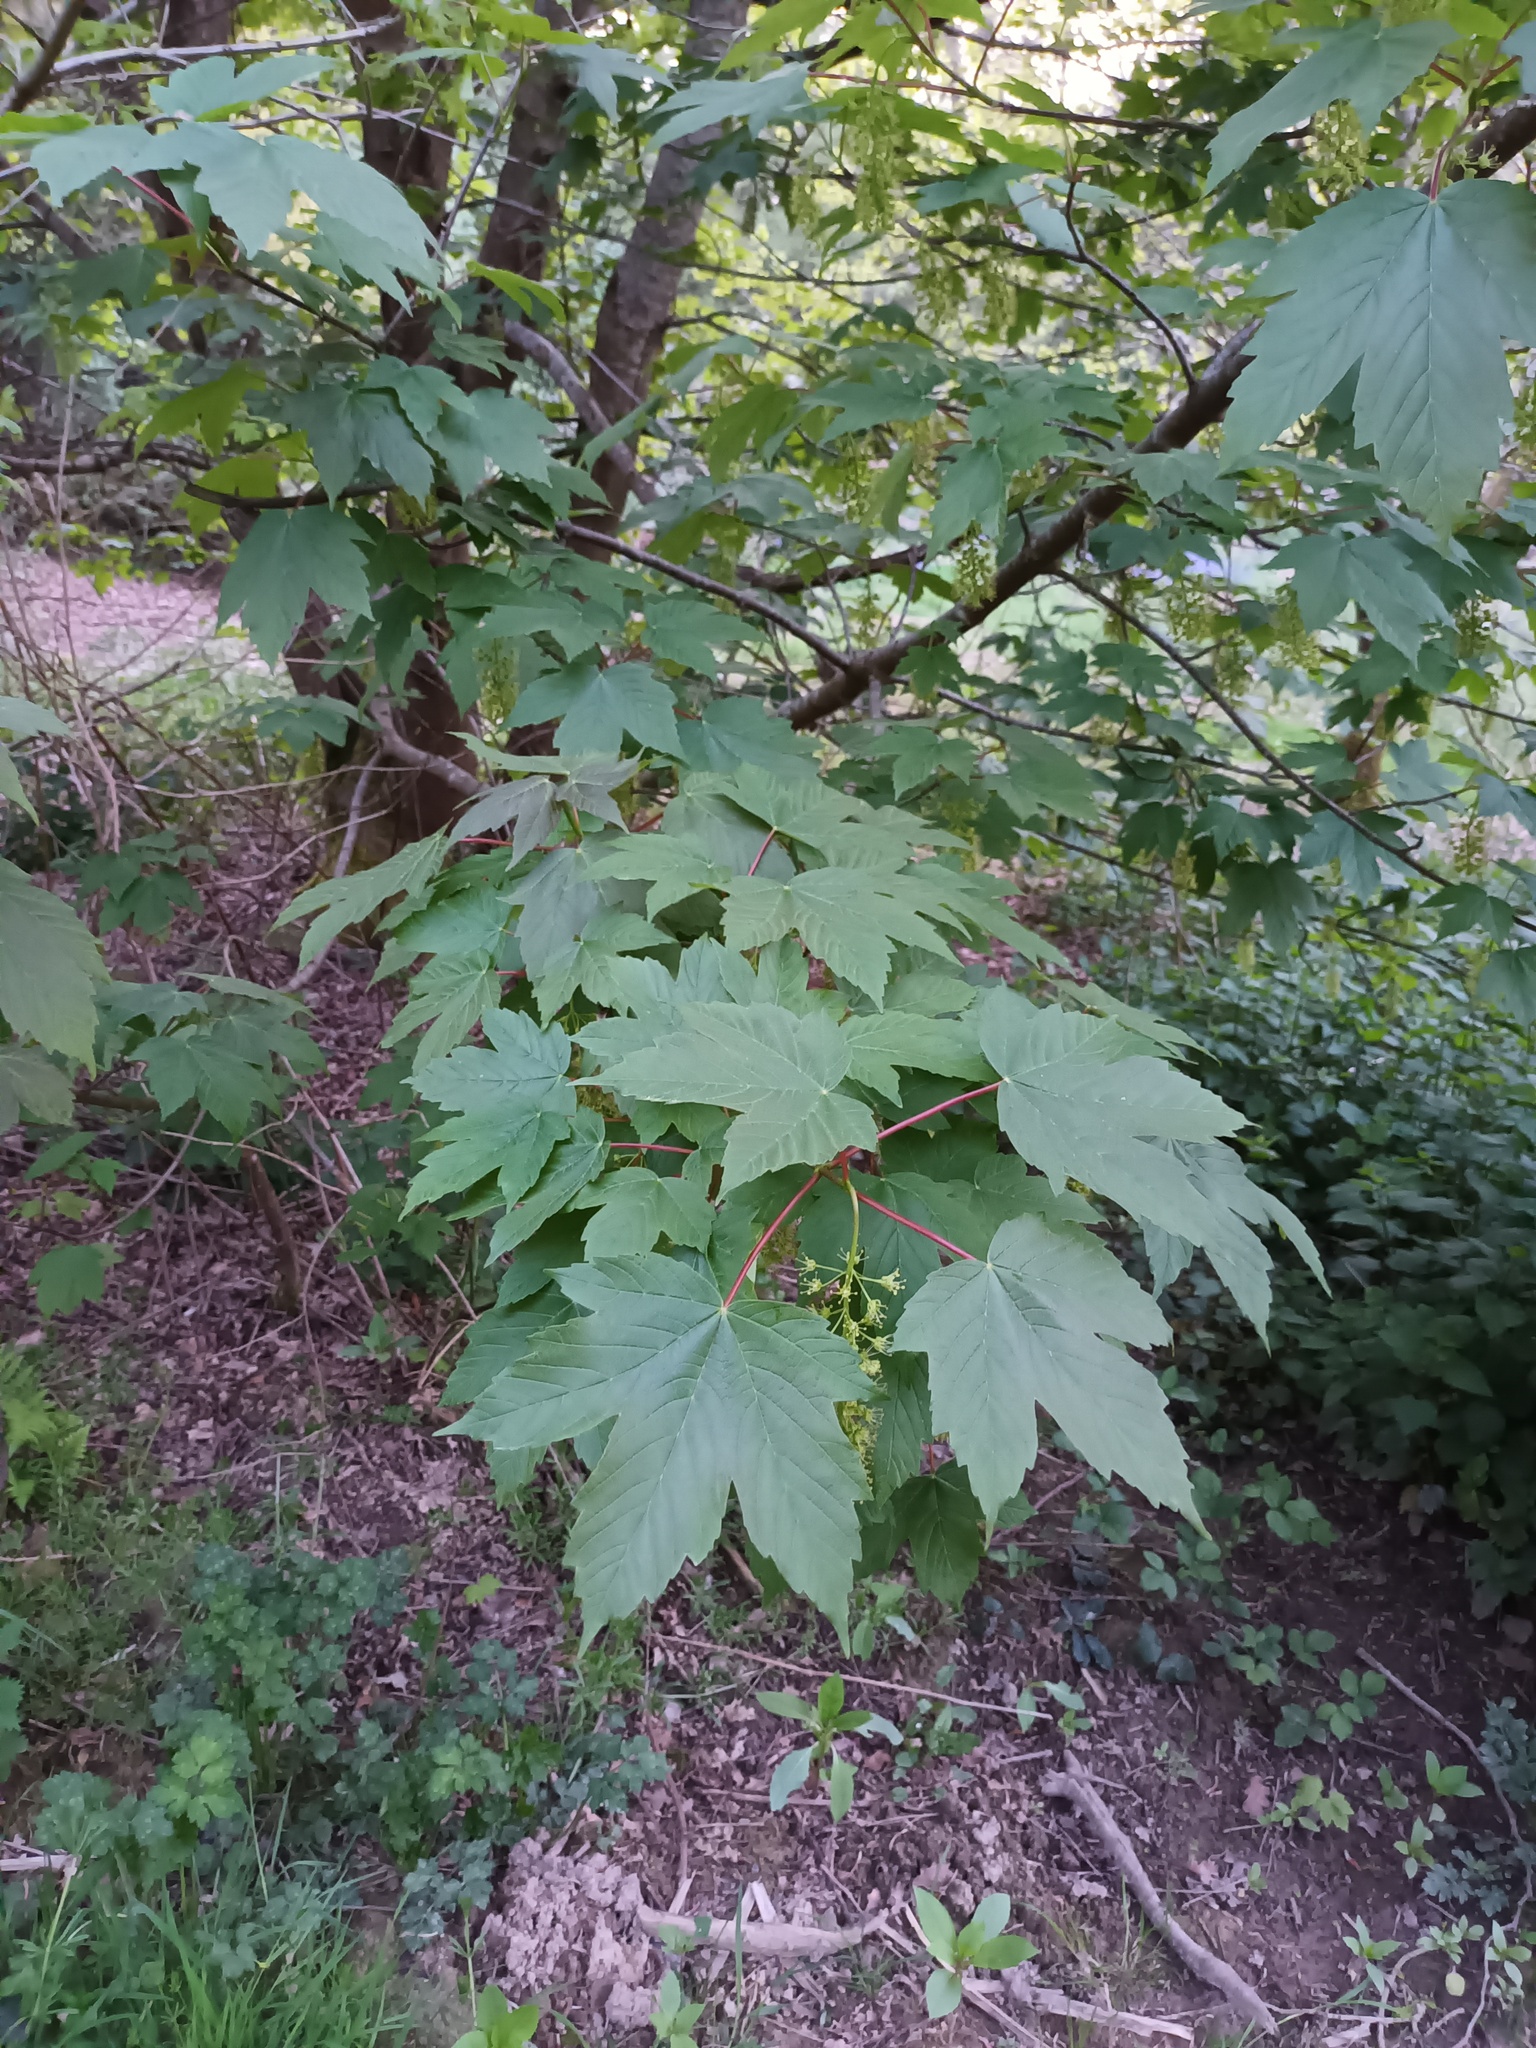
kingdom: Plantae
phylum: Tracheophyta
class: Magnoliopsida
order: Sapindales
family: Sapindaceae
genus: Acer
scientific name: Acer pseudoplatanus
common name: Sycamore
